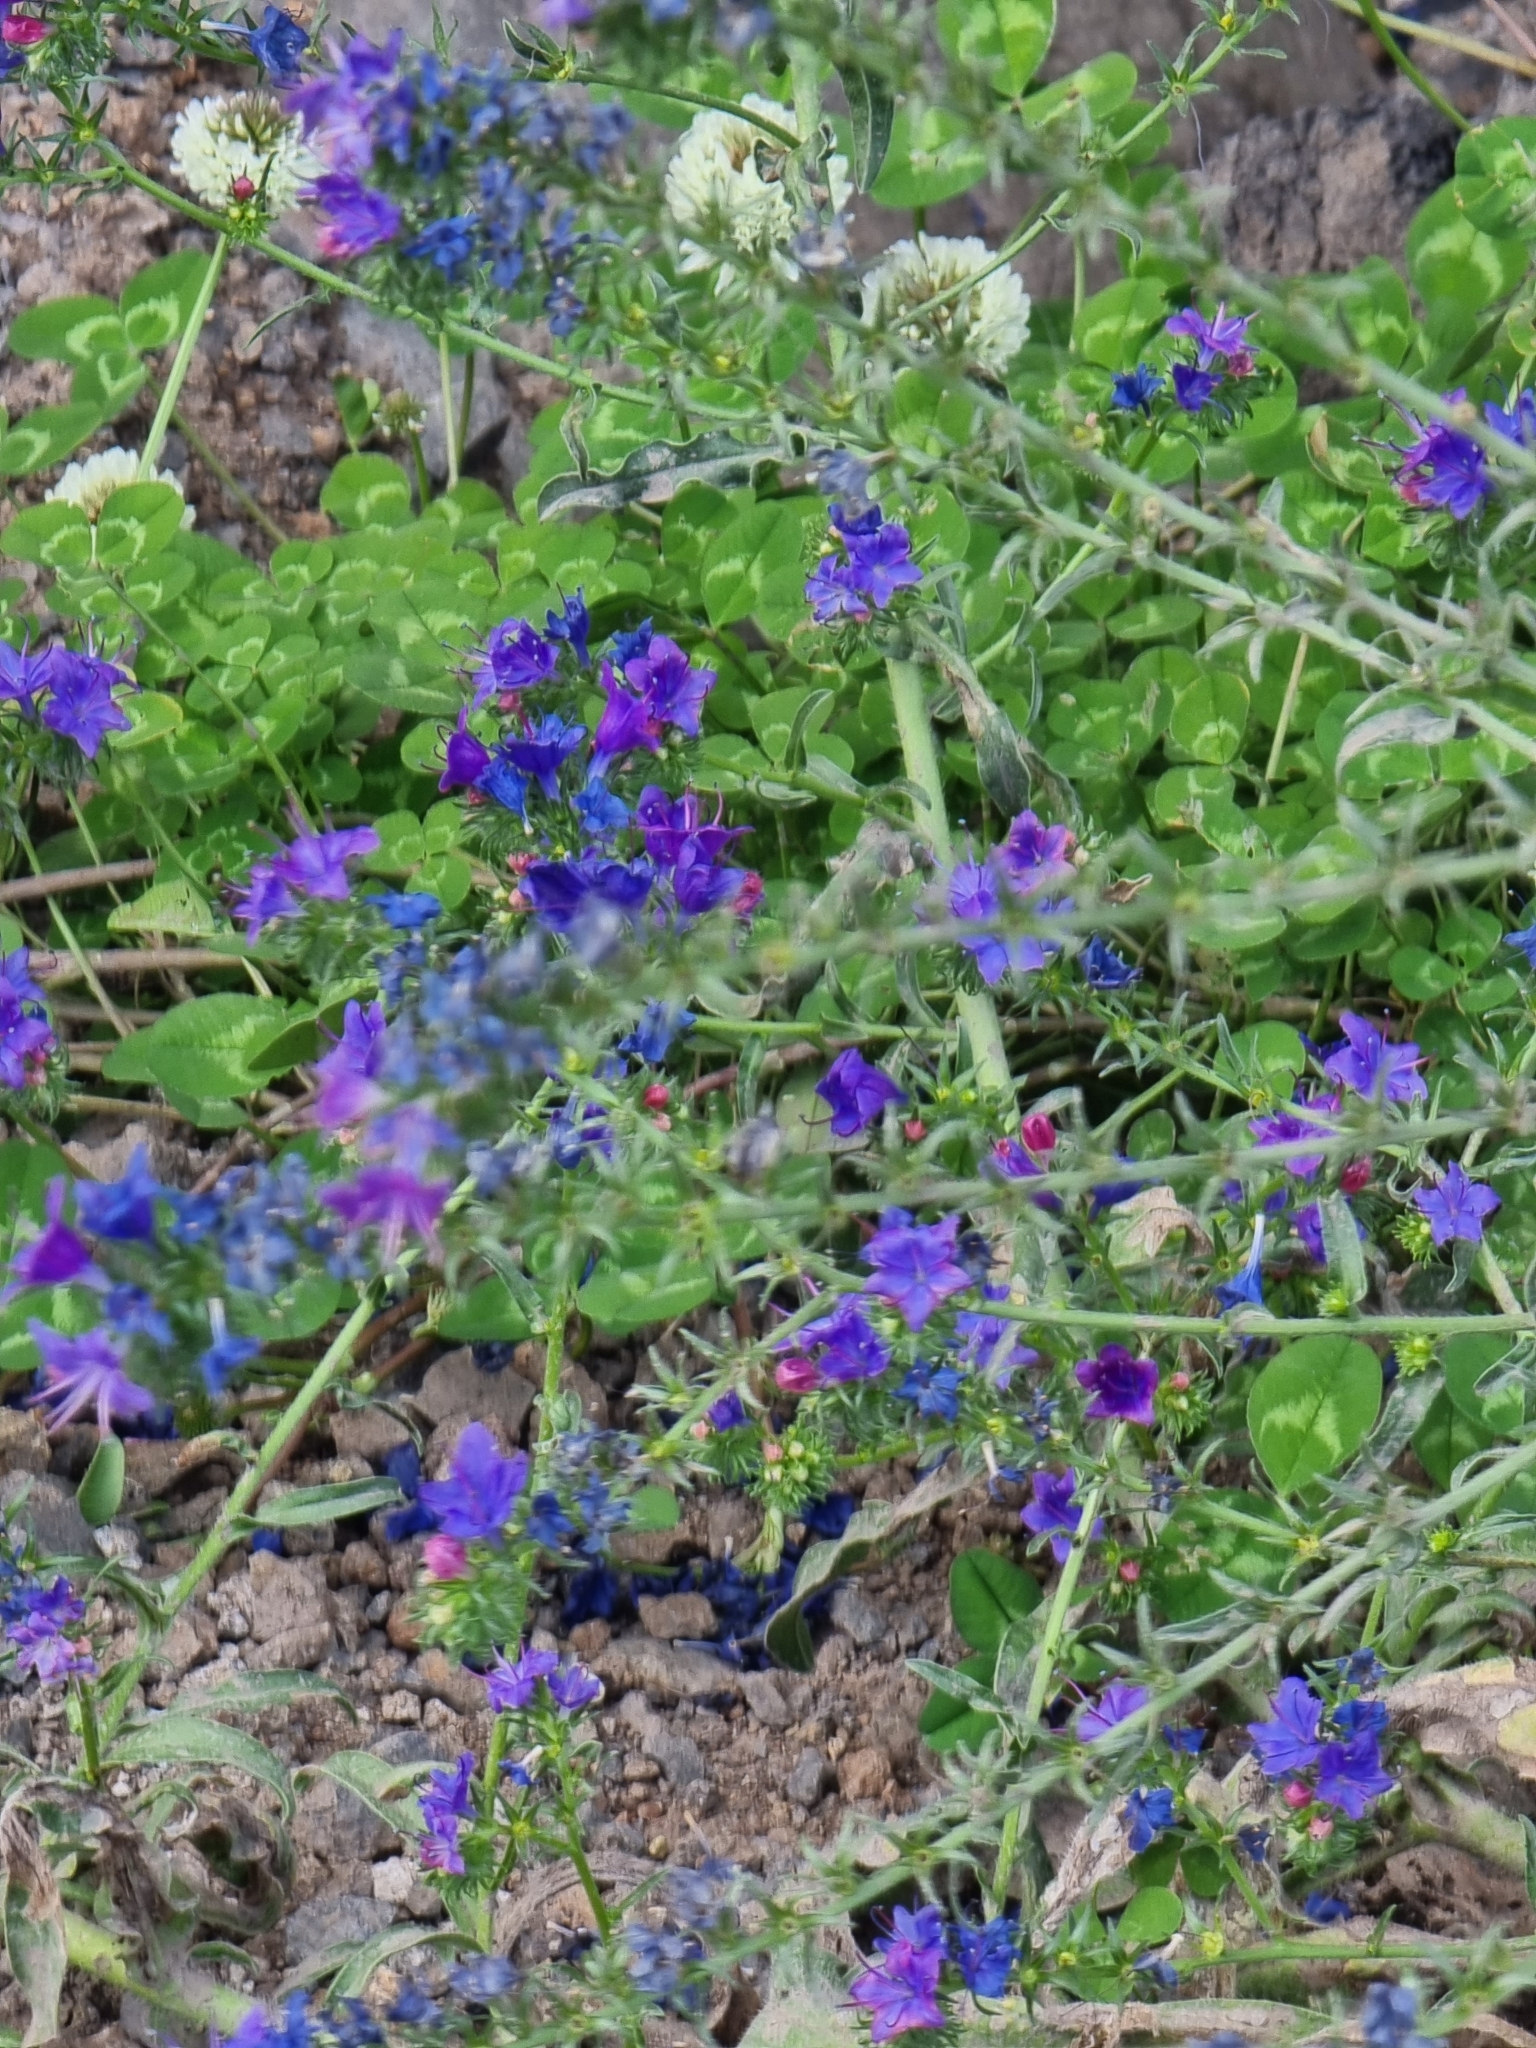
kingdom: Plantae
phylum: Tracheophyta
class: Magnoliopsida
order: Boraginales
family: Boraginaceae
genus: Echium
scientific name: Echium plantagineum
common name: Purple viper's-bugloss
